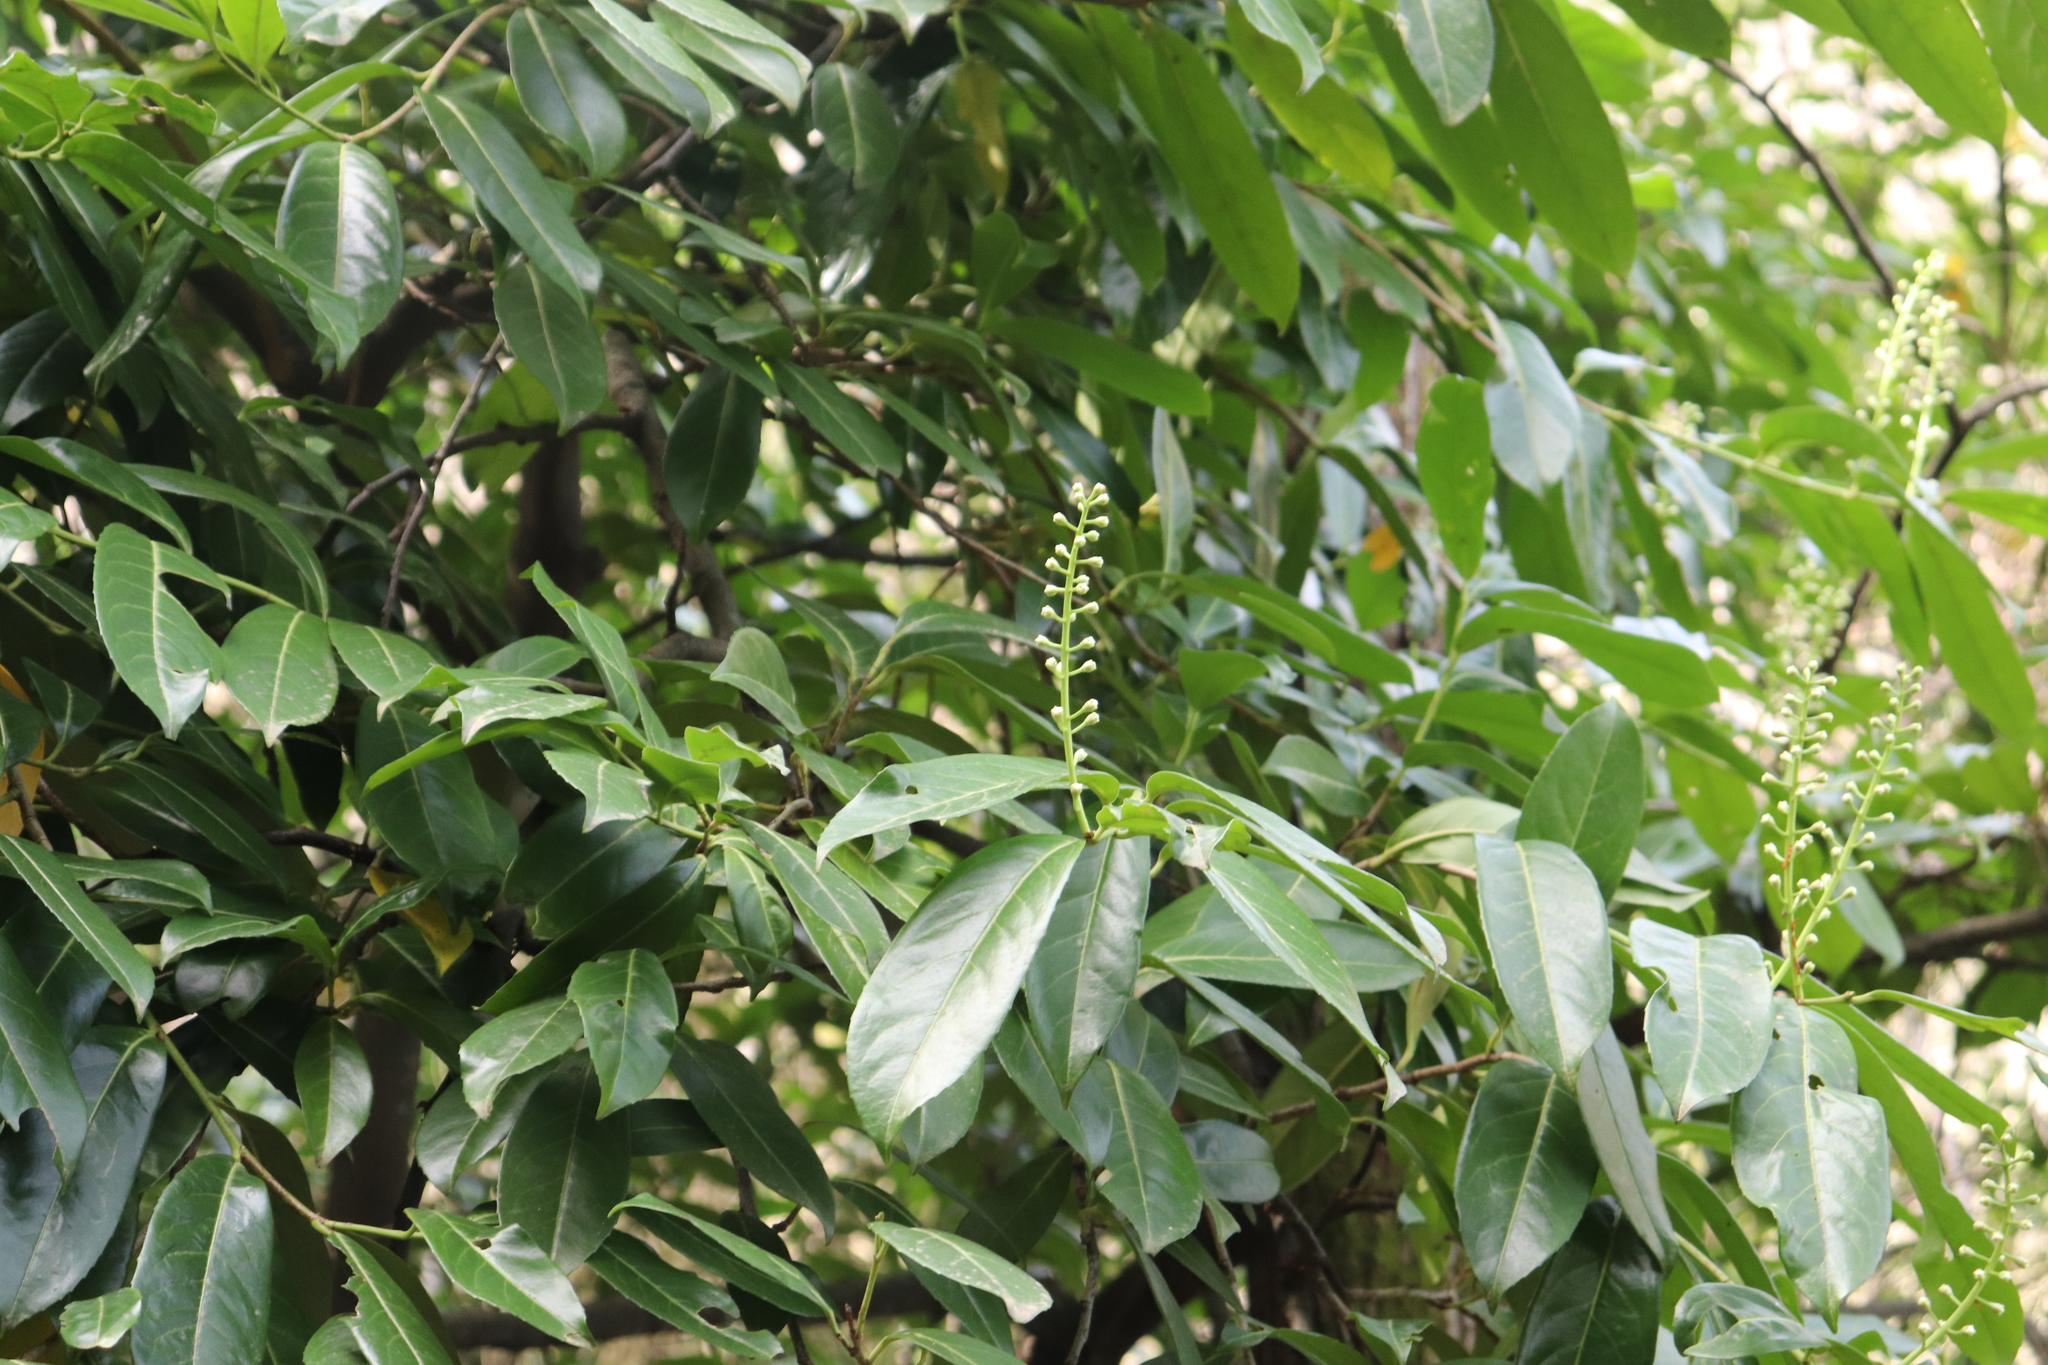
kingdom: Plantae
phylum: Tracheophyta
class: Magnoliopsida
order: Rosales
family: Rosaceae
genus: Prunus
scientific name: Prunus laurocerasus
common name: Cherry laurel
